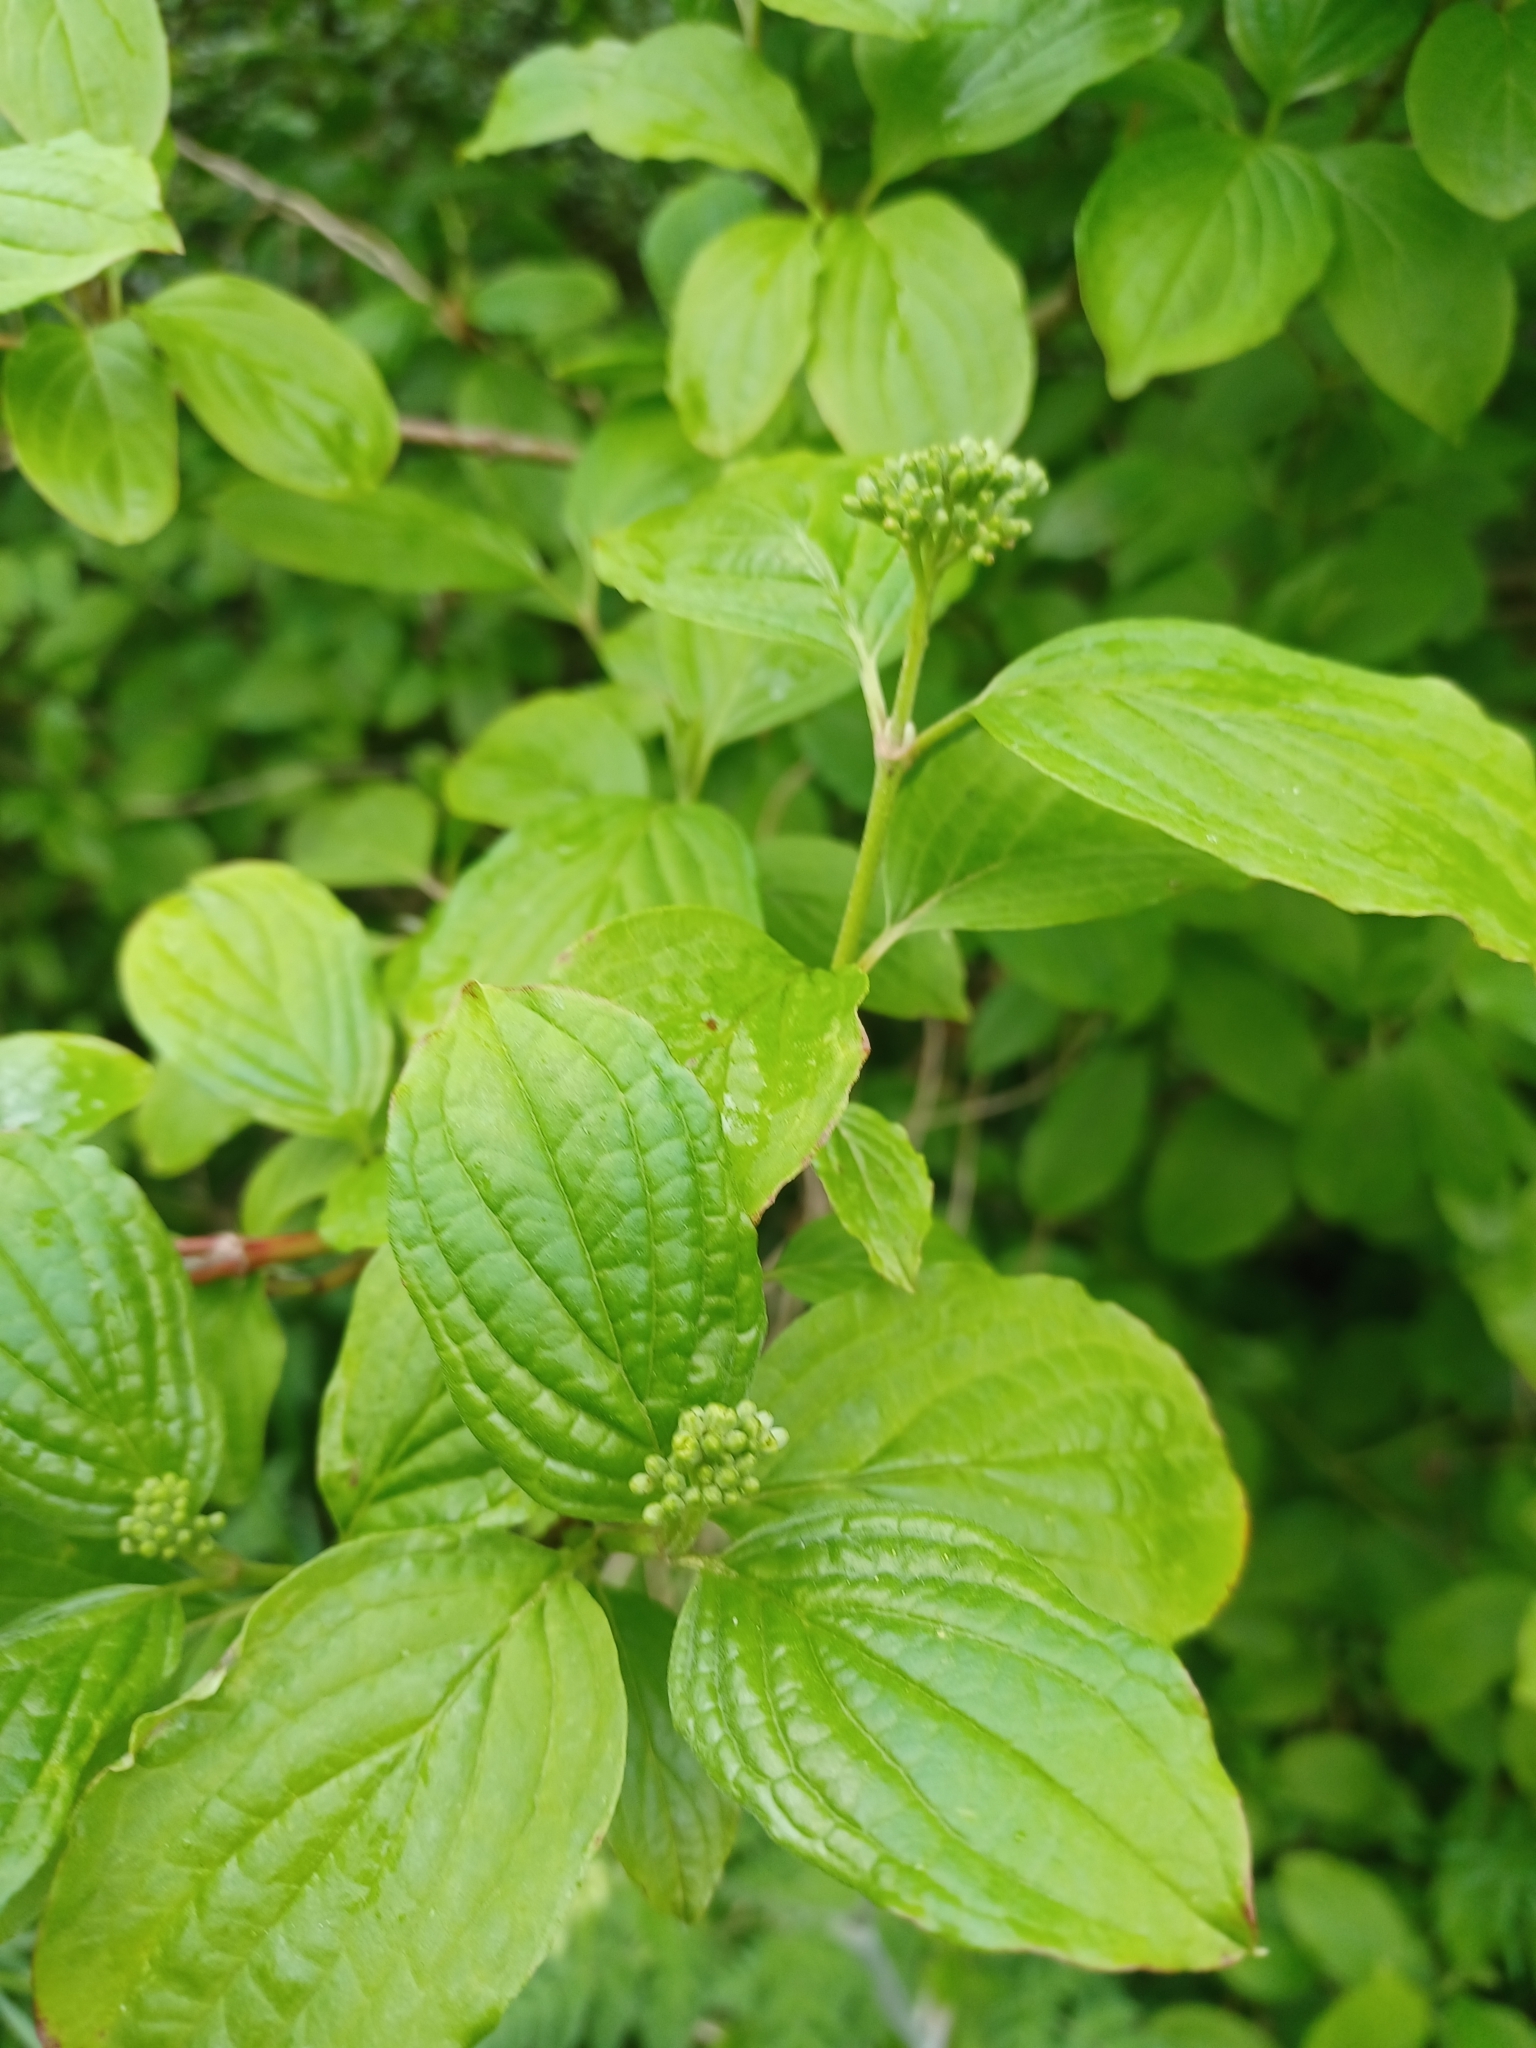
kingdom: Plantae
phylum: Tracheophyta
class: Magnoliopsida
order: Cornales
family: Cornaceae
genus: Cornus
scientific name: Cornus sanguinea
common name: Dogwood
